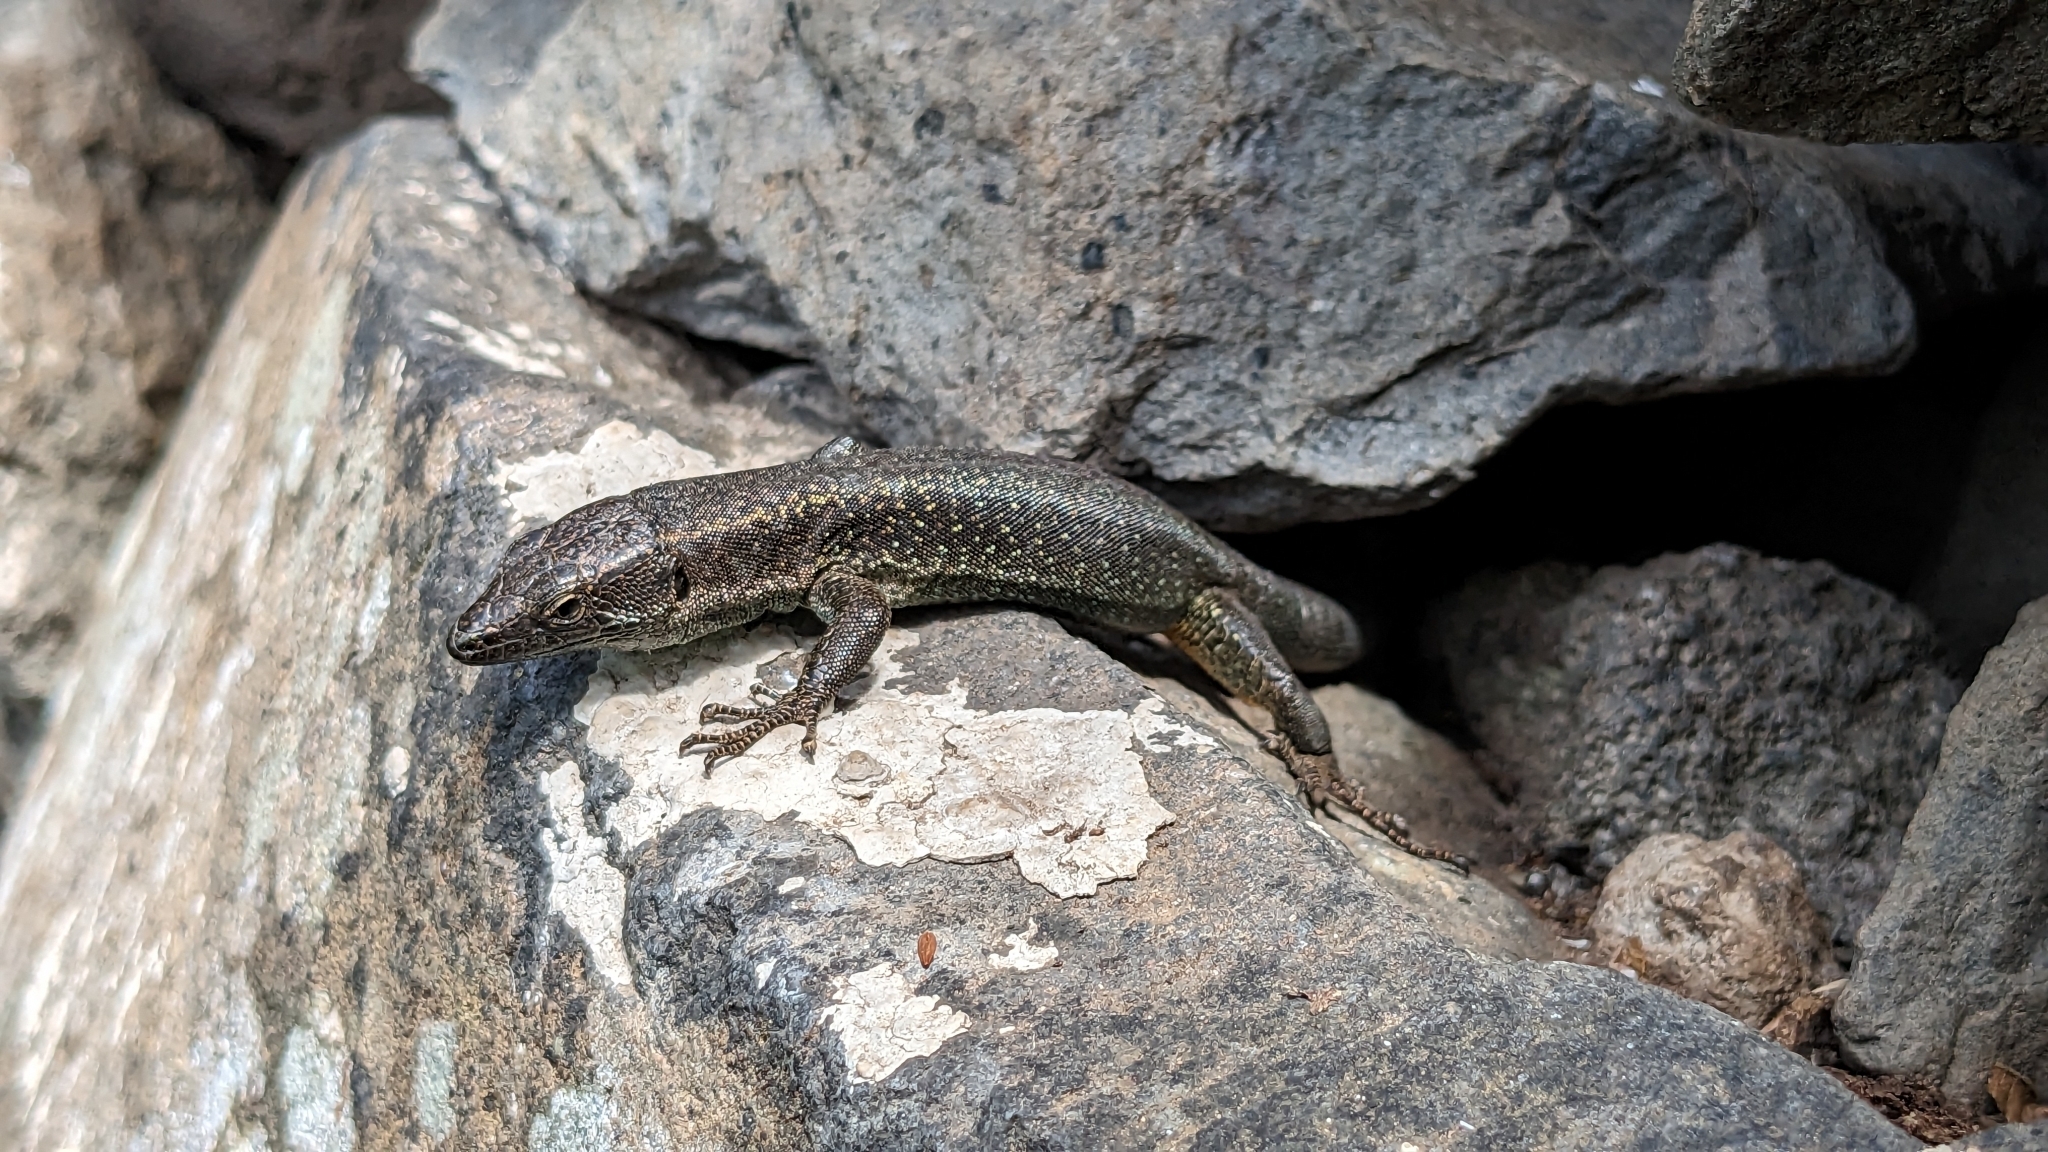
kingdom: Animalia
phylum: Chordata
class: Squamata
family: Lacertidae
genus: Teira
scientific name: Teira dugesii
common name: Madeira lizard
